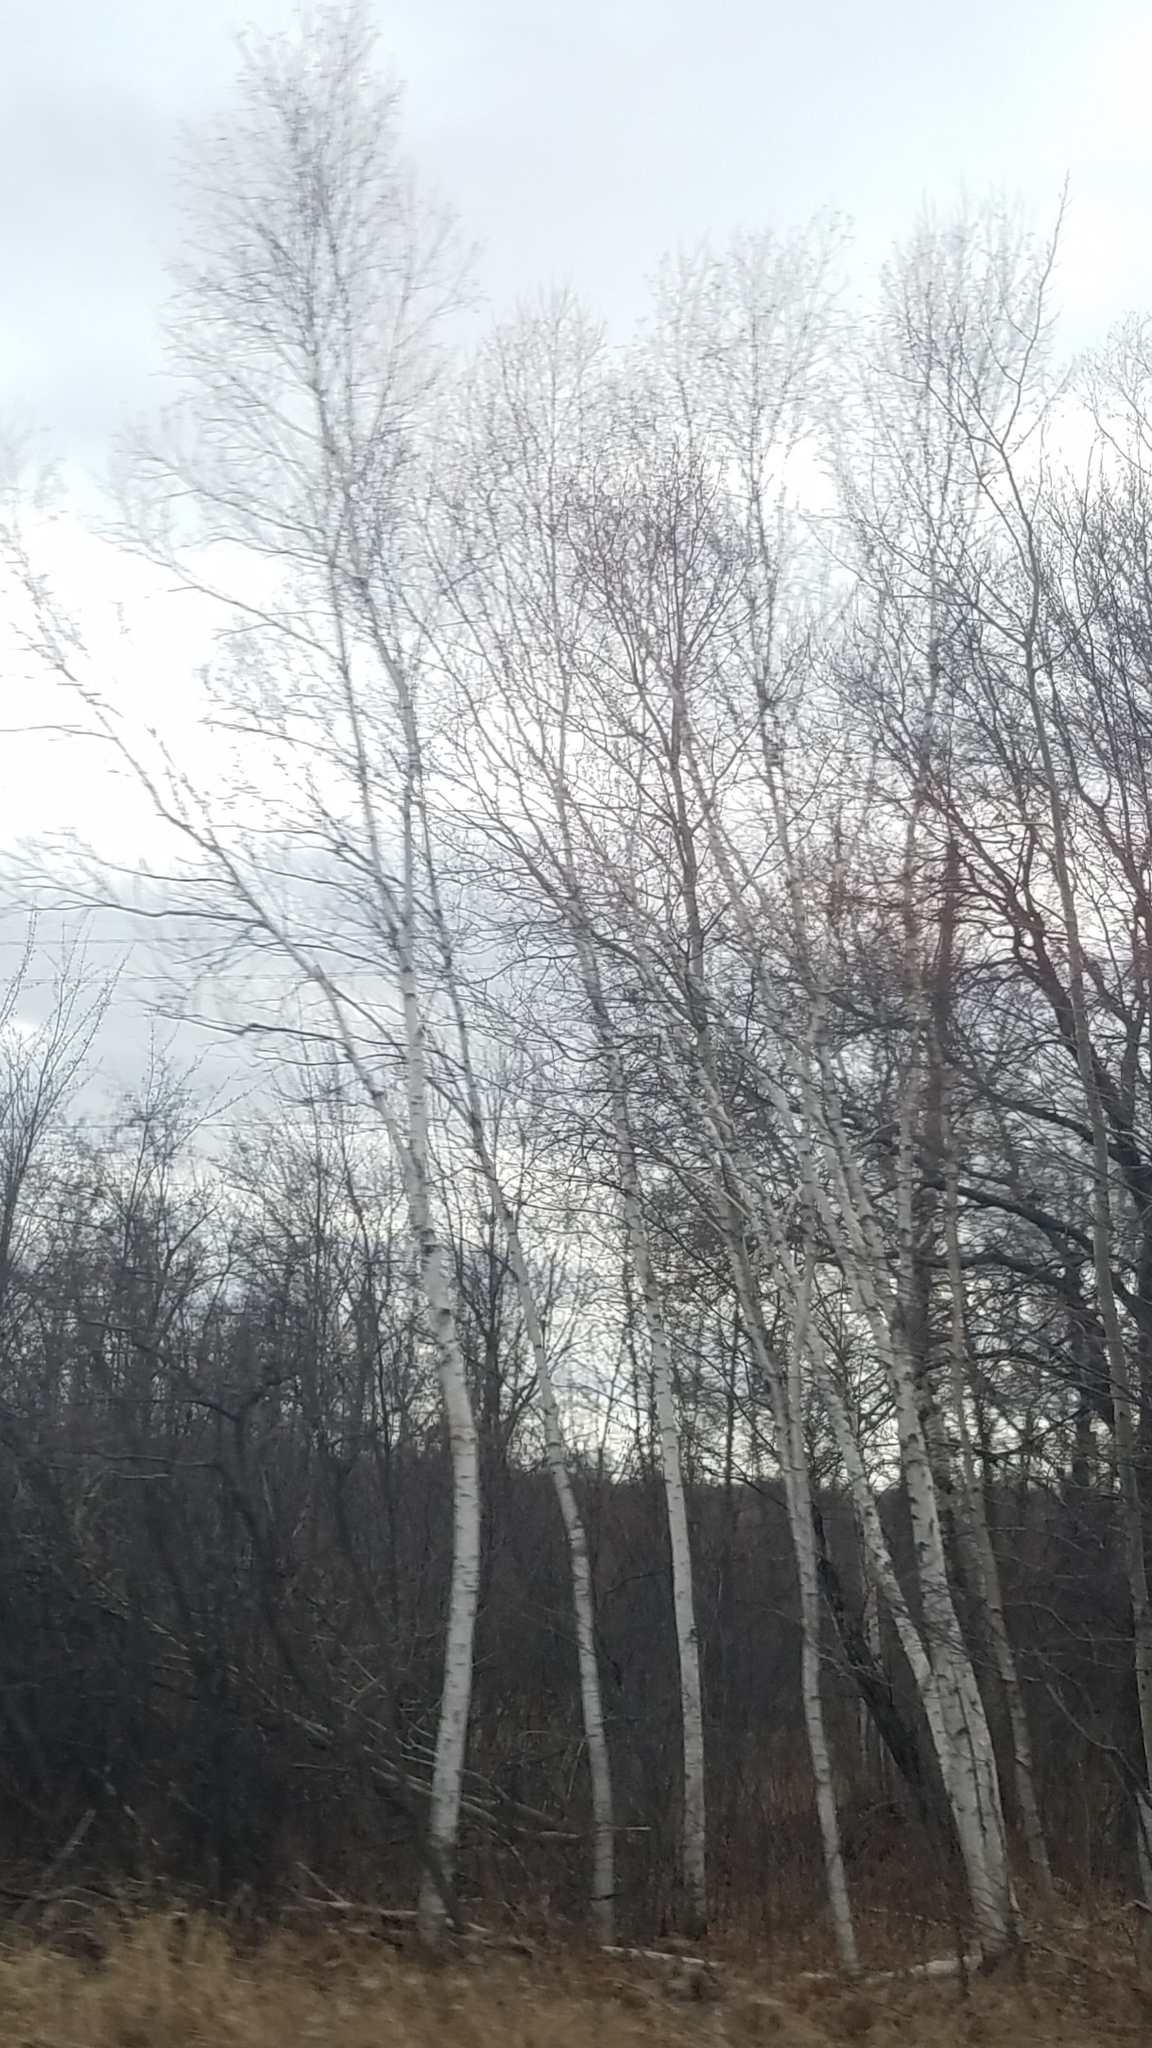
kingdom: Plantae
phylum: Tracheophyta
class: Magnoliopsida
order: Malpighiales
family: Salicaceae
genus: Populus
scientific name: Populus tremuloides
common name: Quaking aspen
